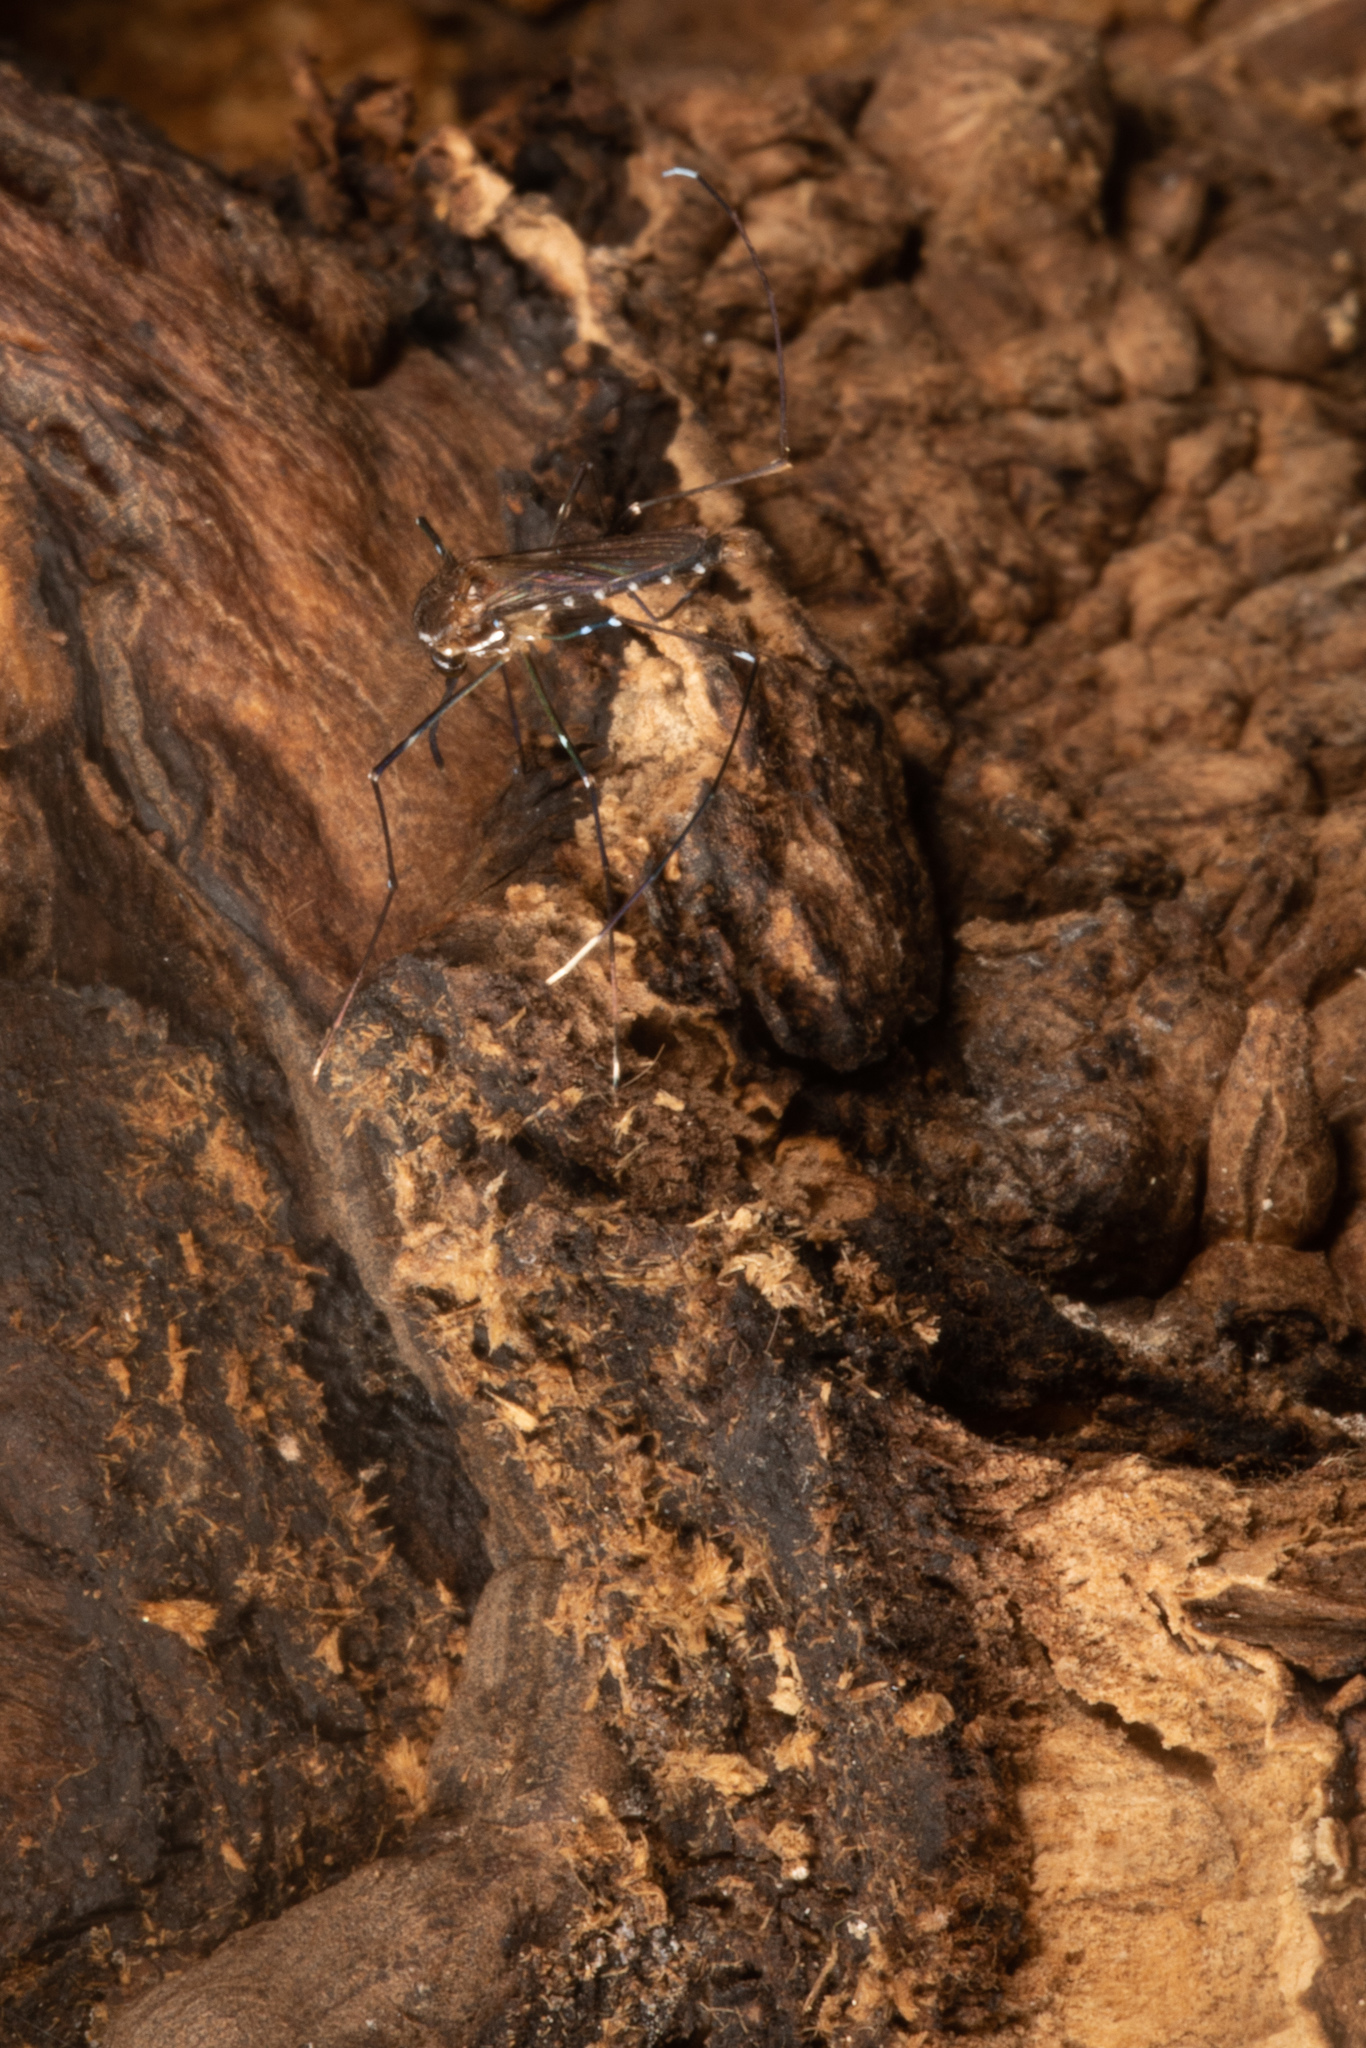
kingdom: Animalia
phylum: Arthropoda
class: Insecta
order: Diptera
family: Culicidae
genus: Maorigoeldia
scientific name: Maorigoeldia argyropus
